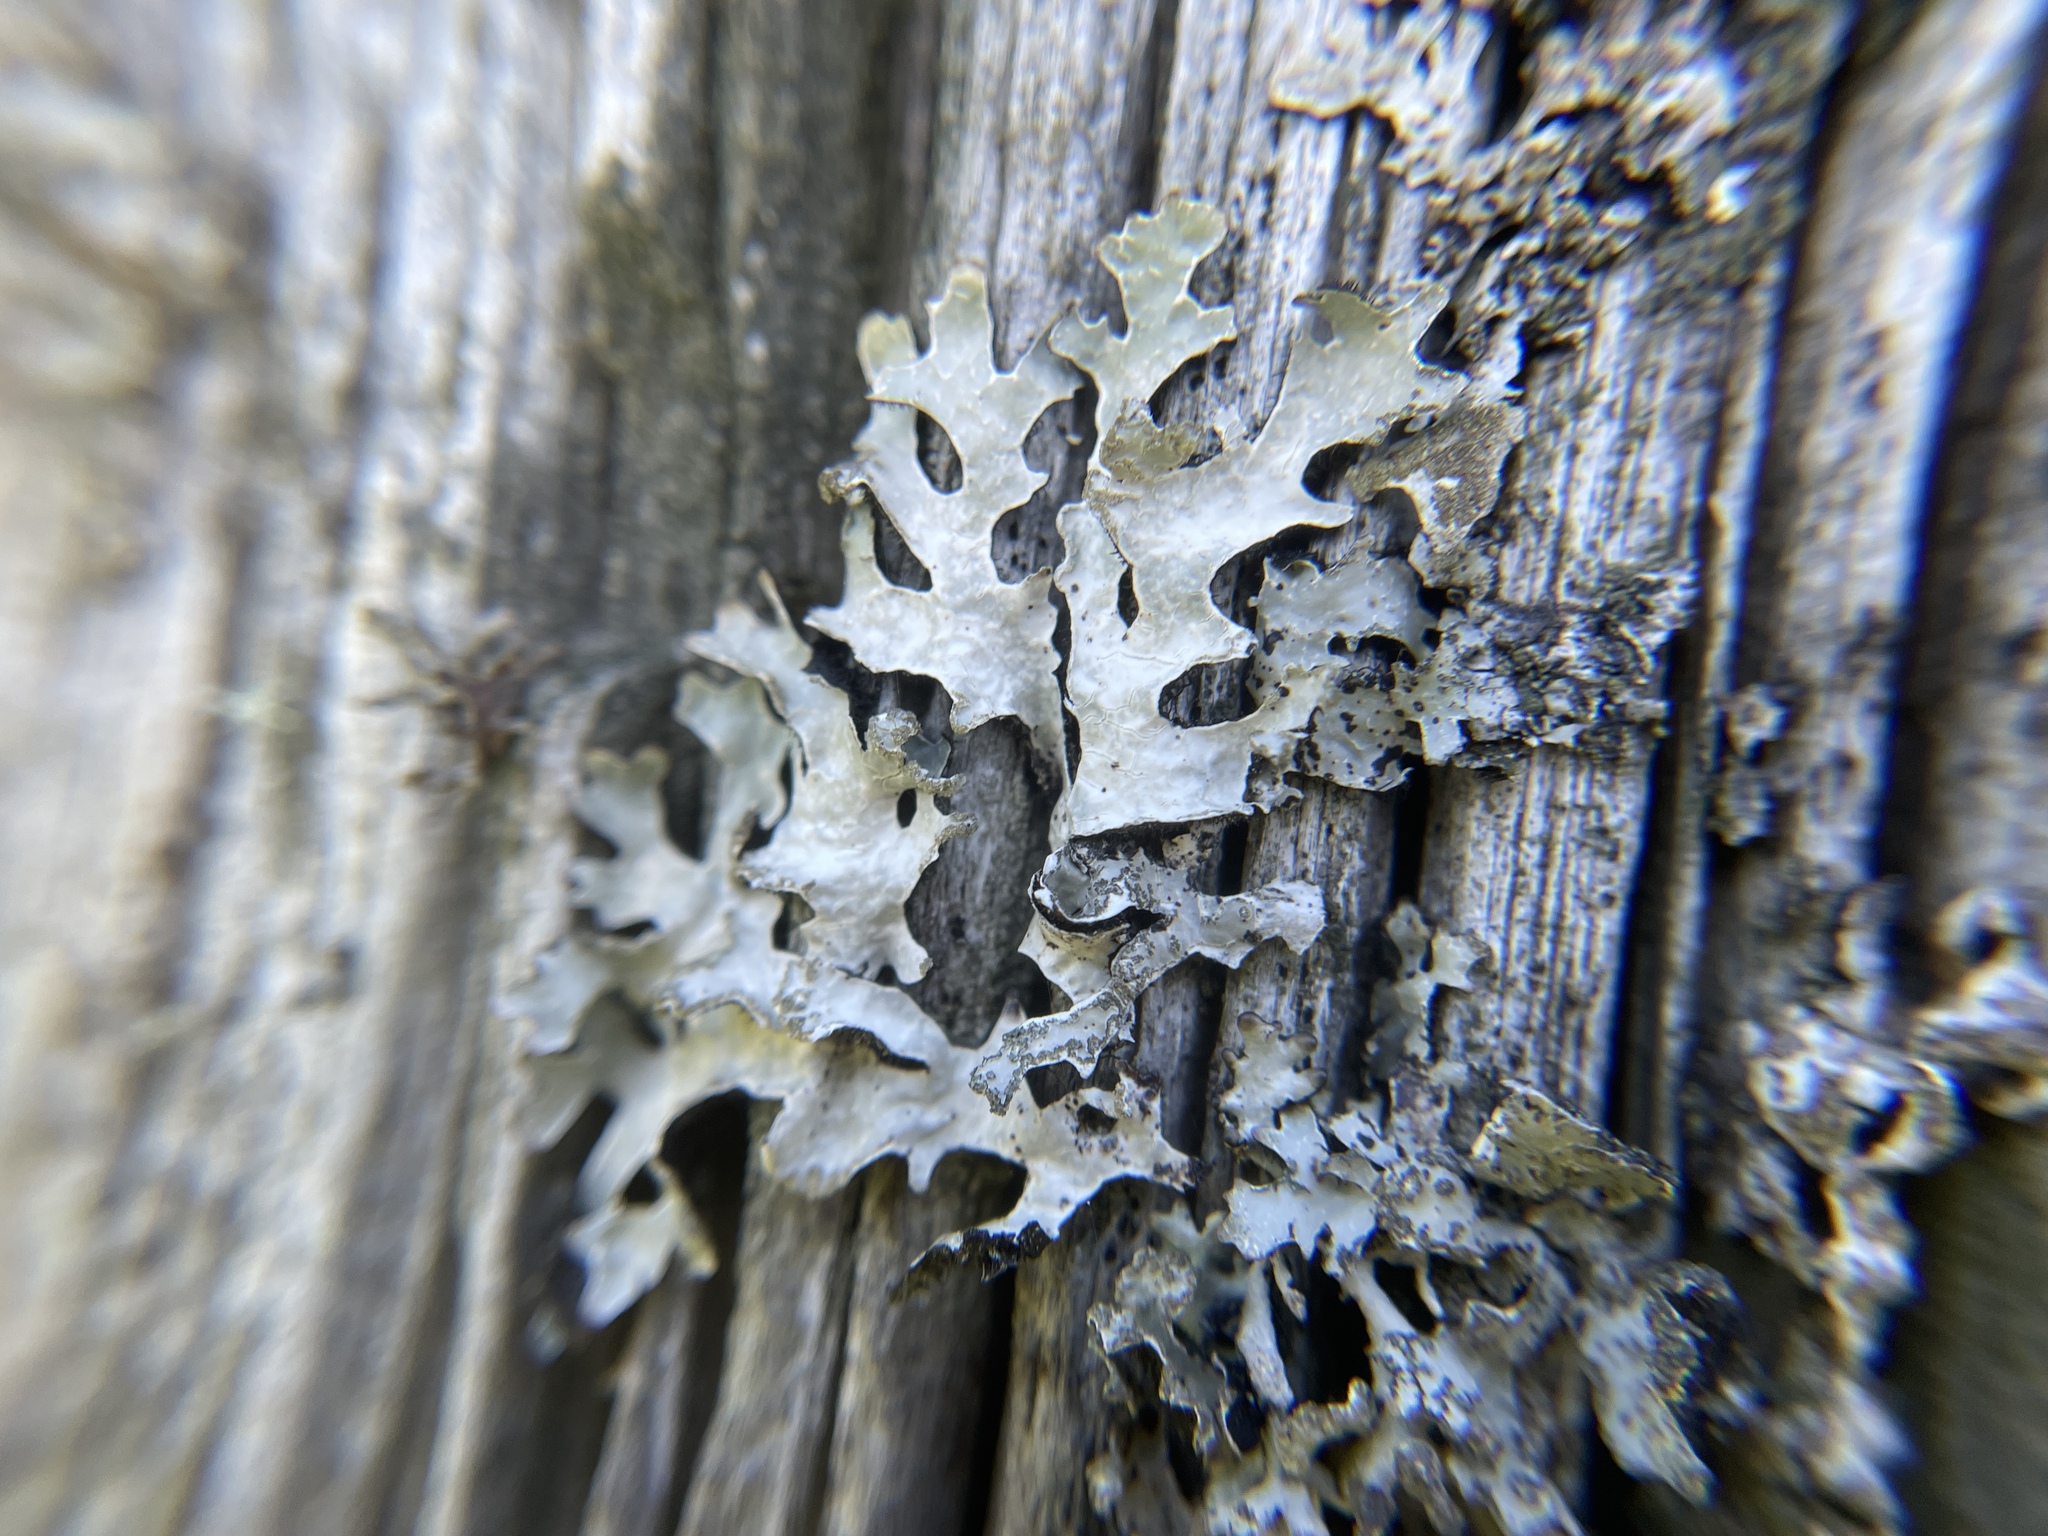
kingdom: Fungi
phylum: Ascomycota
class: Lecanoromycetes
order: Lecanorales
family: Parmeliaceae
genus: Parmelia
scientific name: Parmelia sulcata
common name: Netted shield lichen
